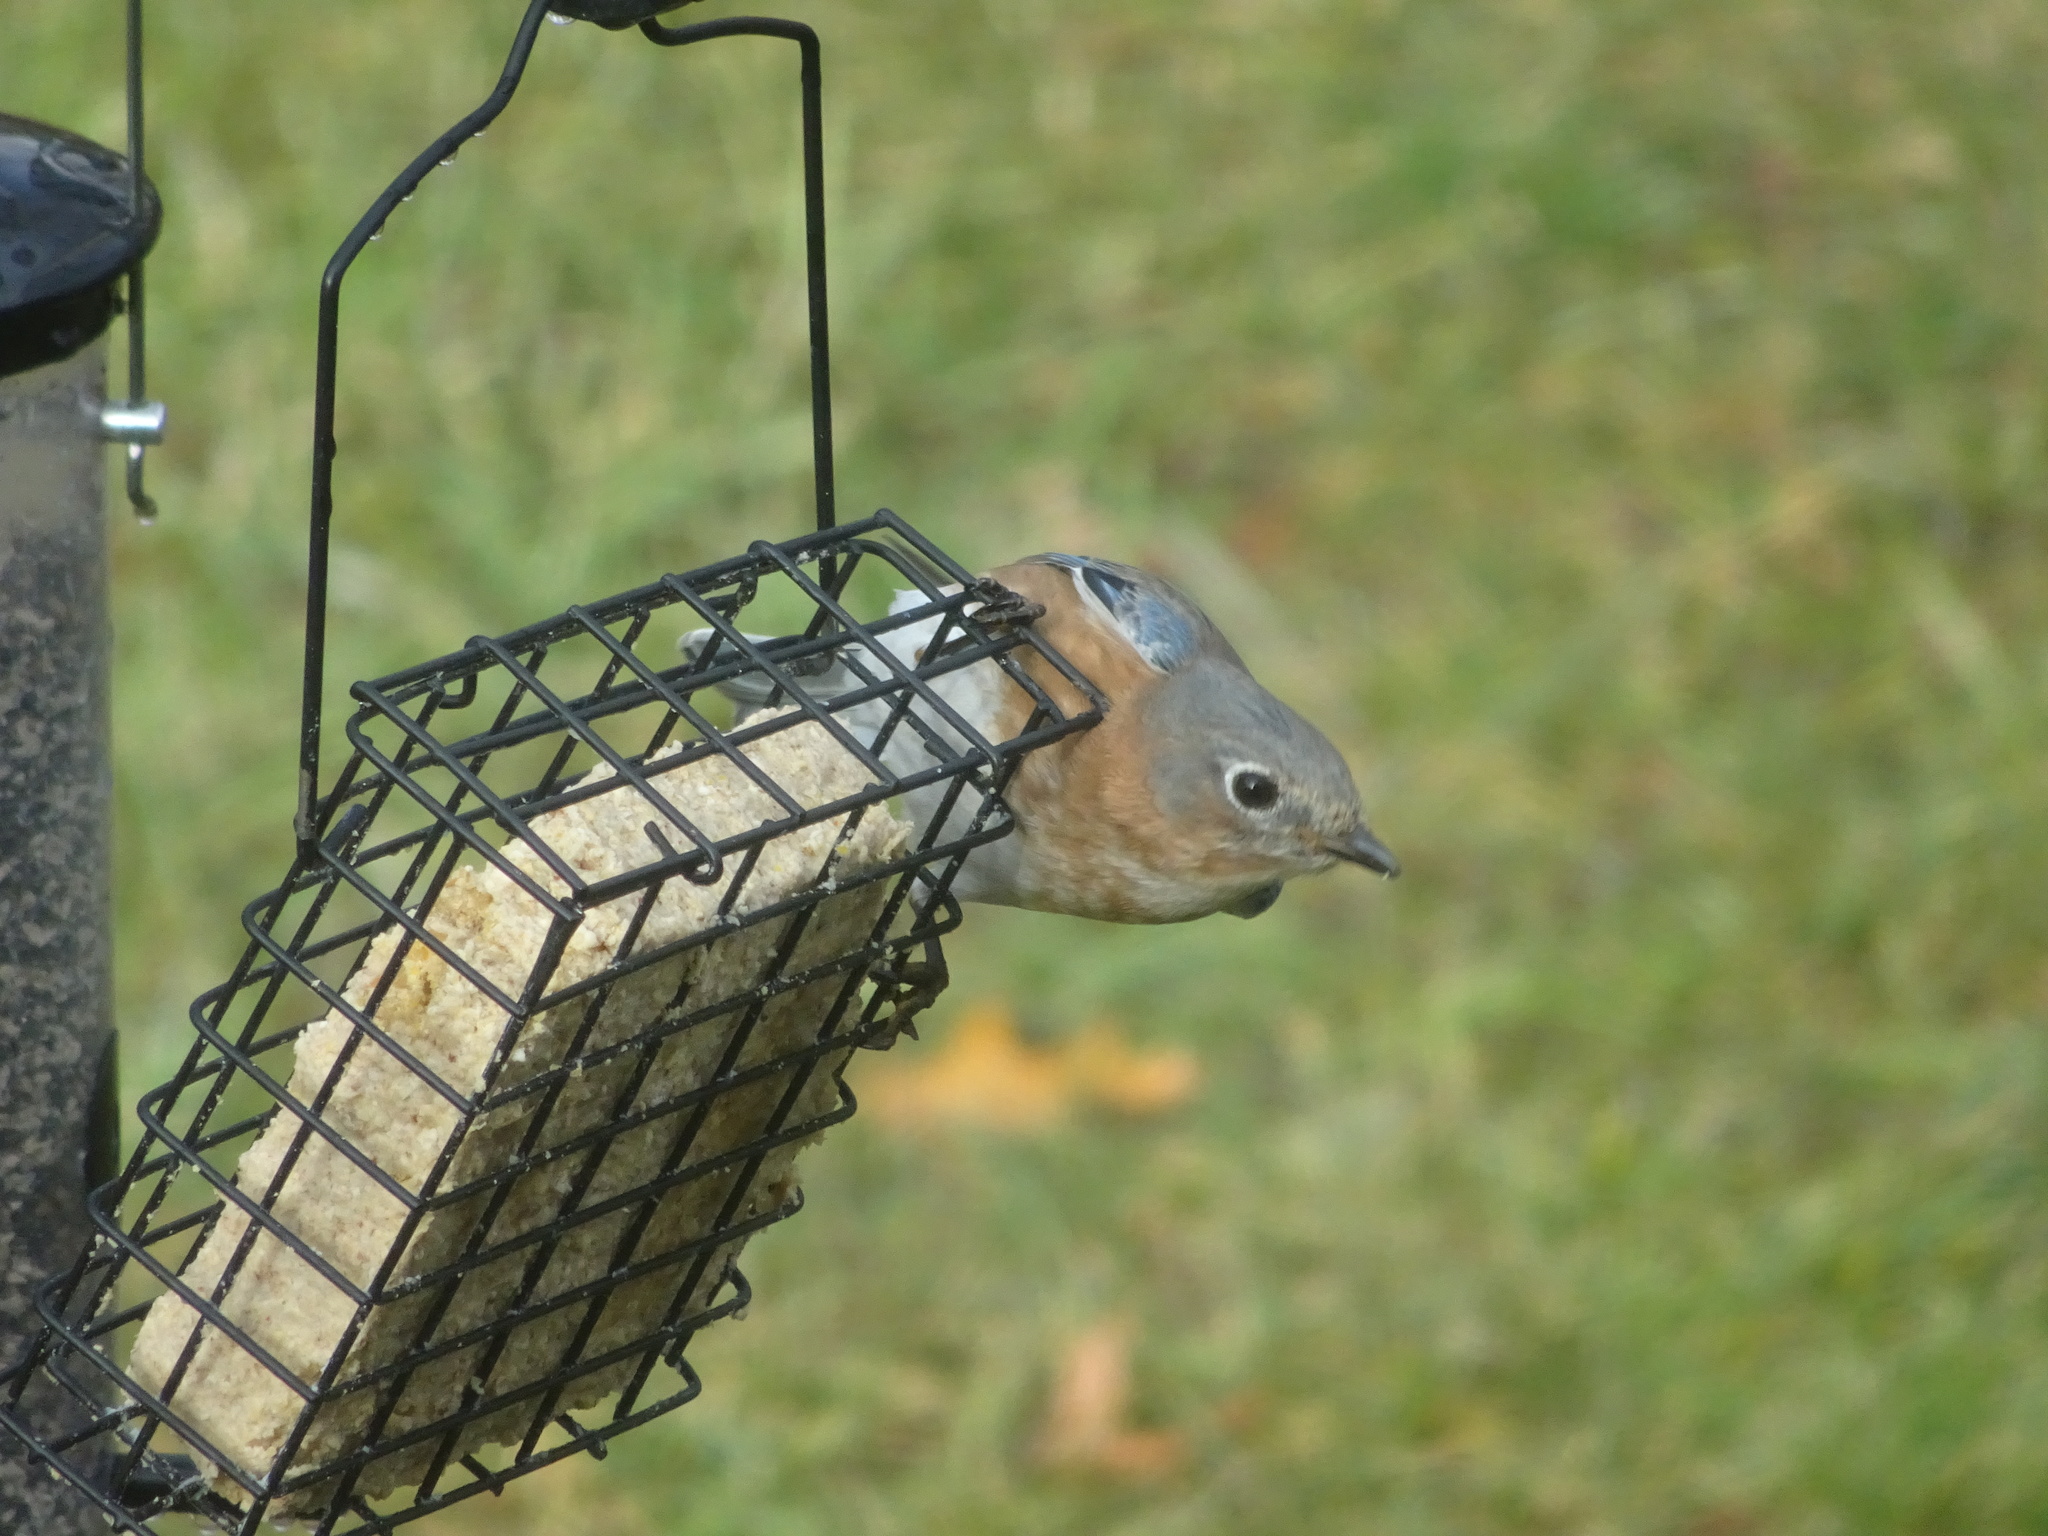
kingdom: Animalia
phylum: Chordata
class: Aves
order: Passeriformes
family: Turdidae
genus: Sialia
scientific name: Sialia sialis
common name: Eastern bluebird
